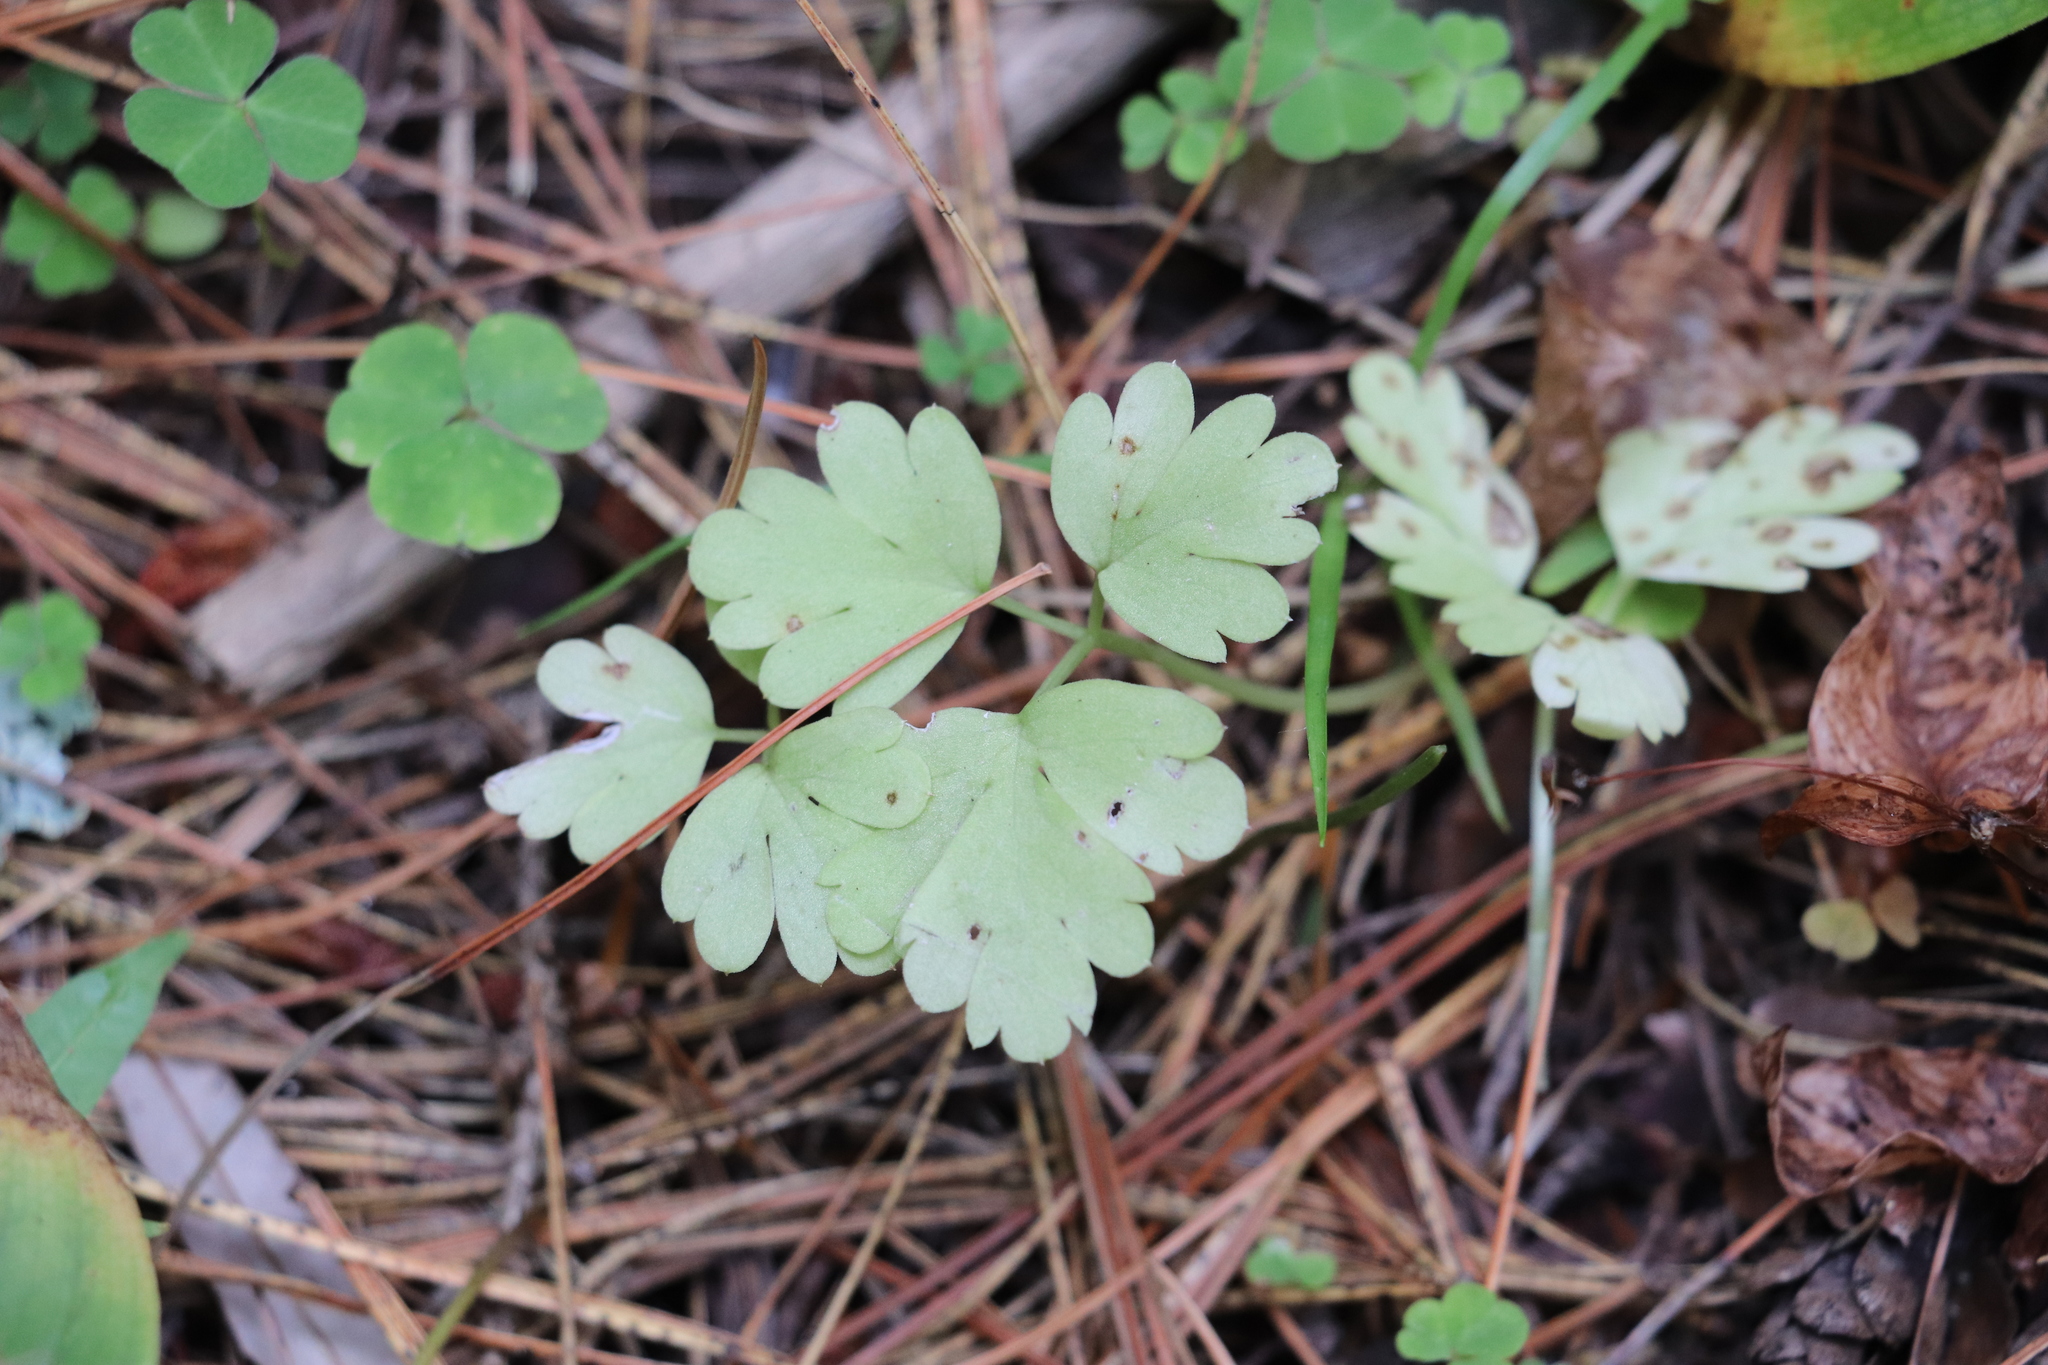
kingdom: Plantae
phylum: Tracheophyta
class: Magnoliopsida
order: Dipsacales
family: Viburnaceae
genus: Adoxa
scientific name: Adoxa moschatellina
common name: Moschatel
